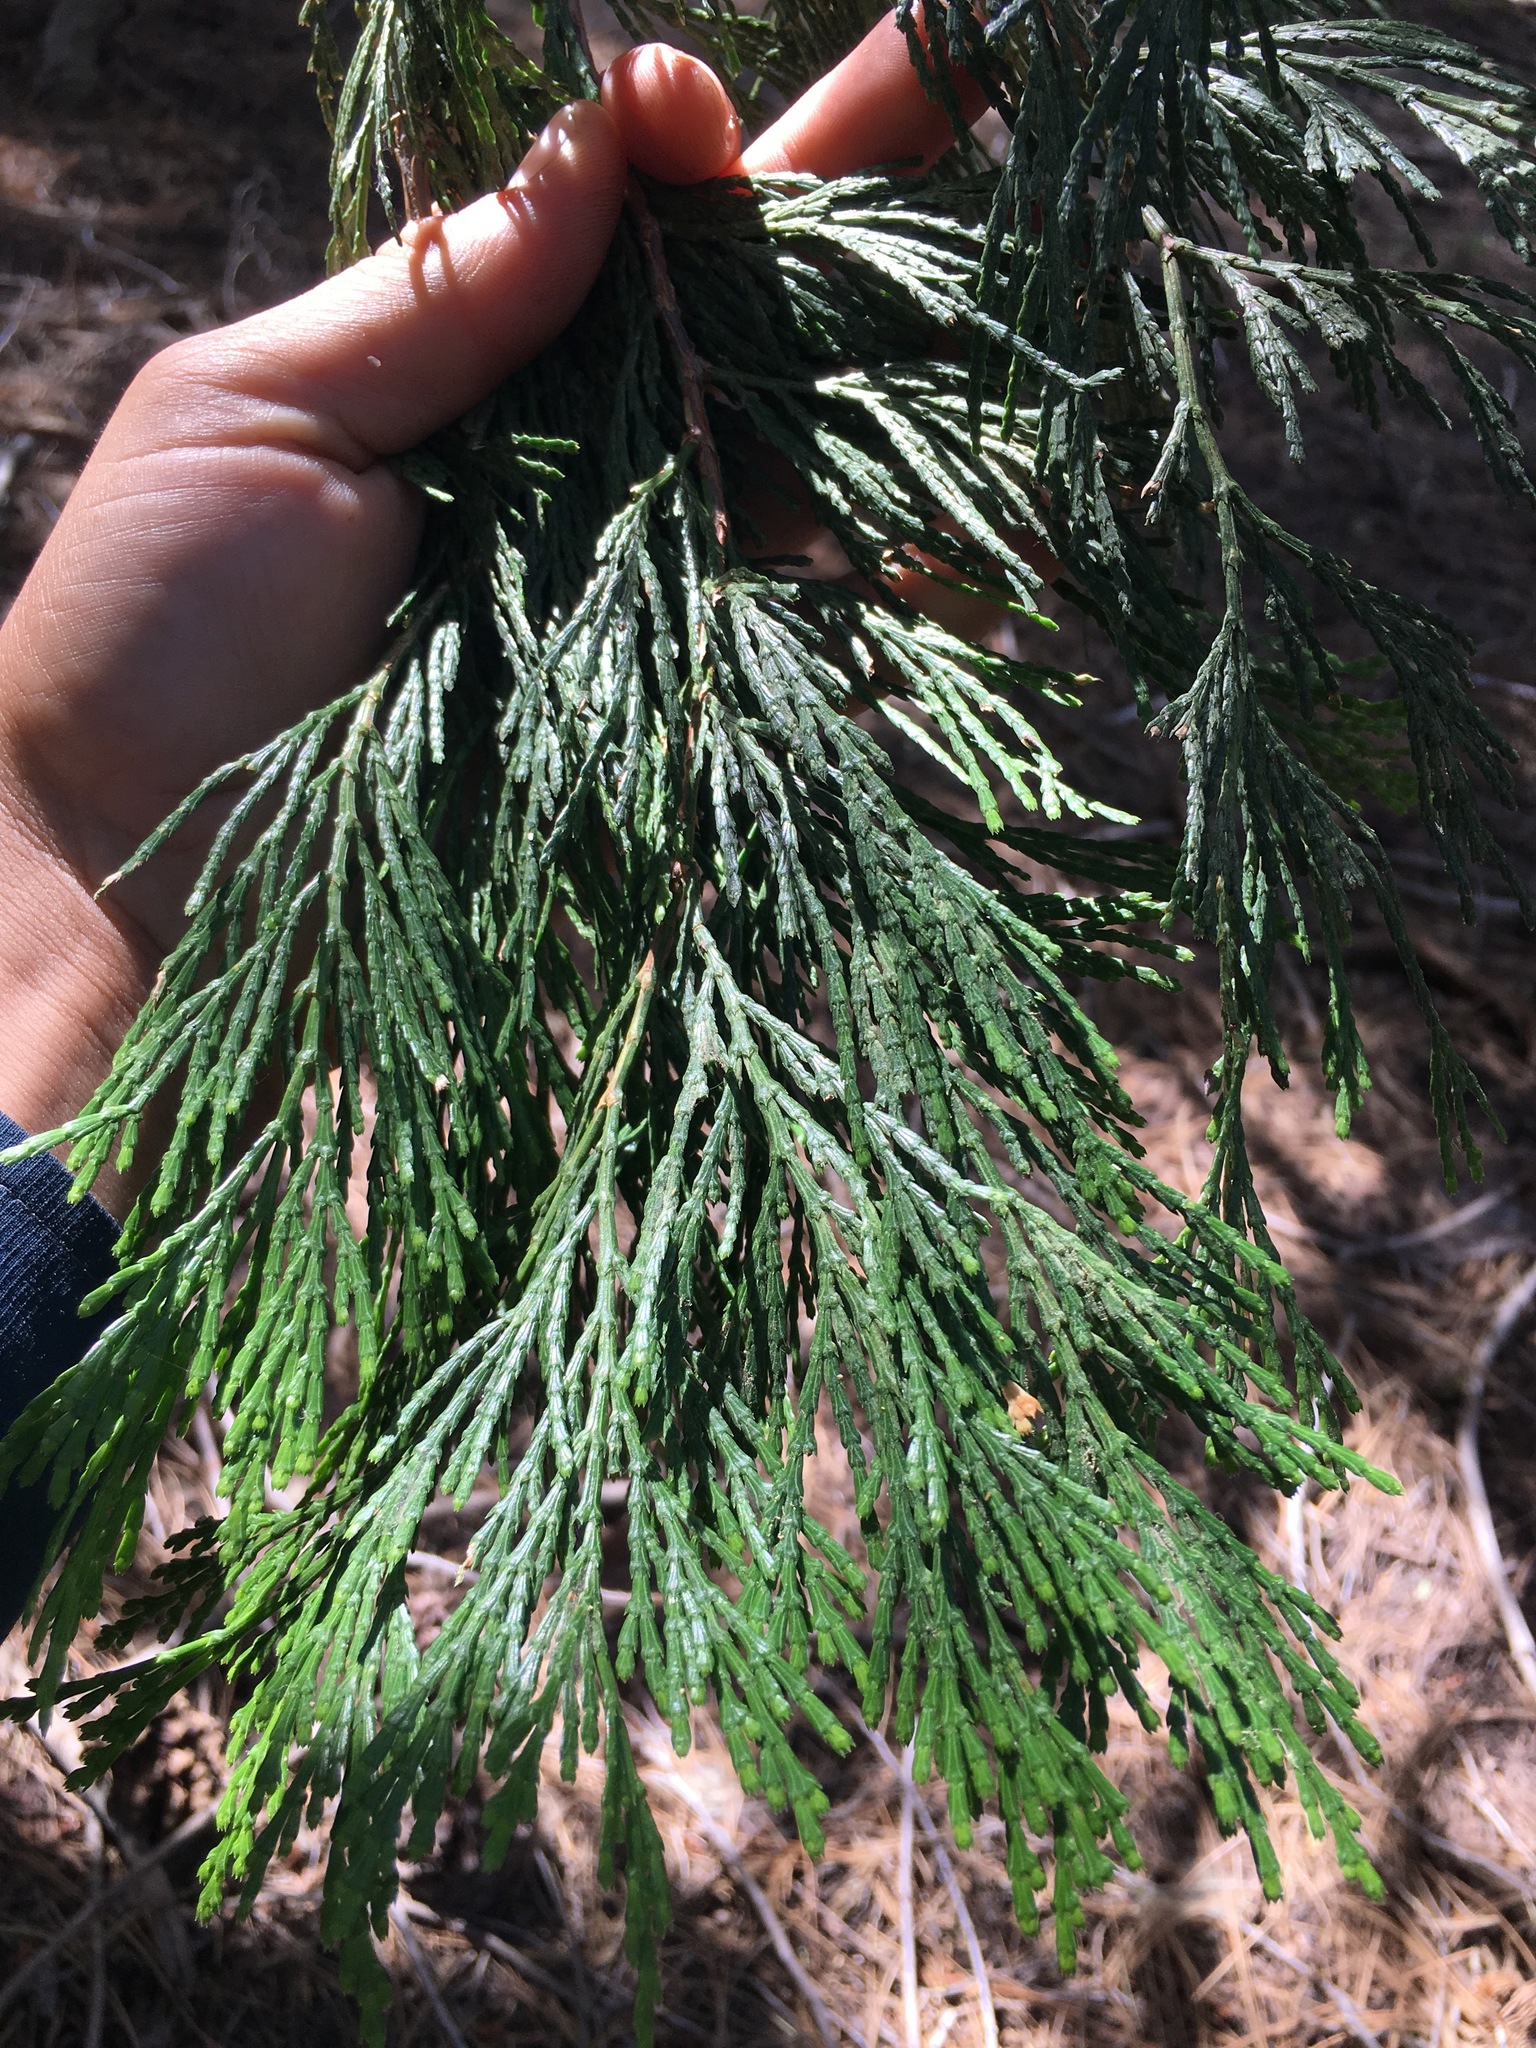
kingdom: Plantae
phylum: Tracheophyta
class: Pinopsida
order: Pinales
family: Cupressaceae
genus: Calocedrus
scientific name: Calocedrus decurrens
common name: Californian incense-cedar
